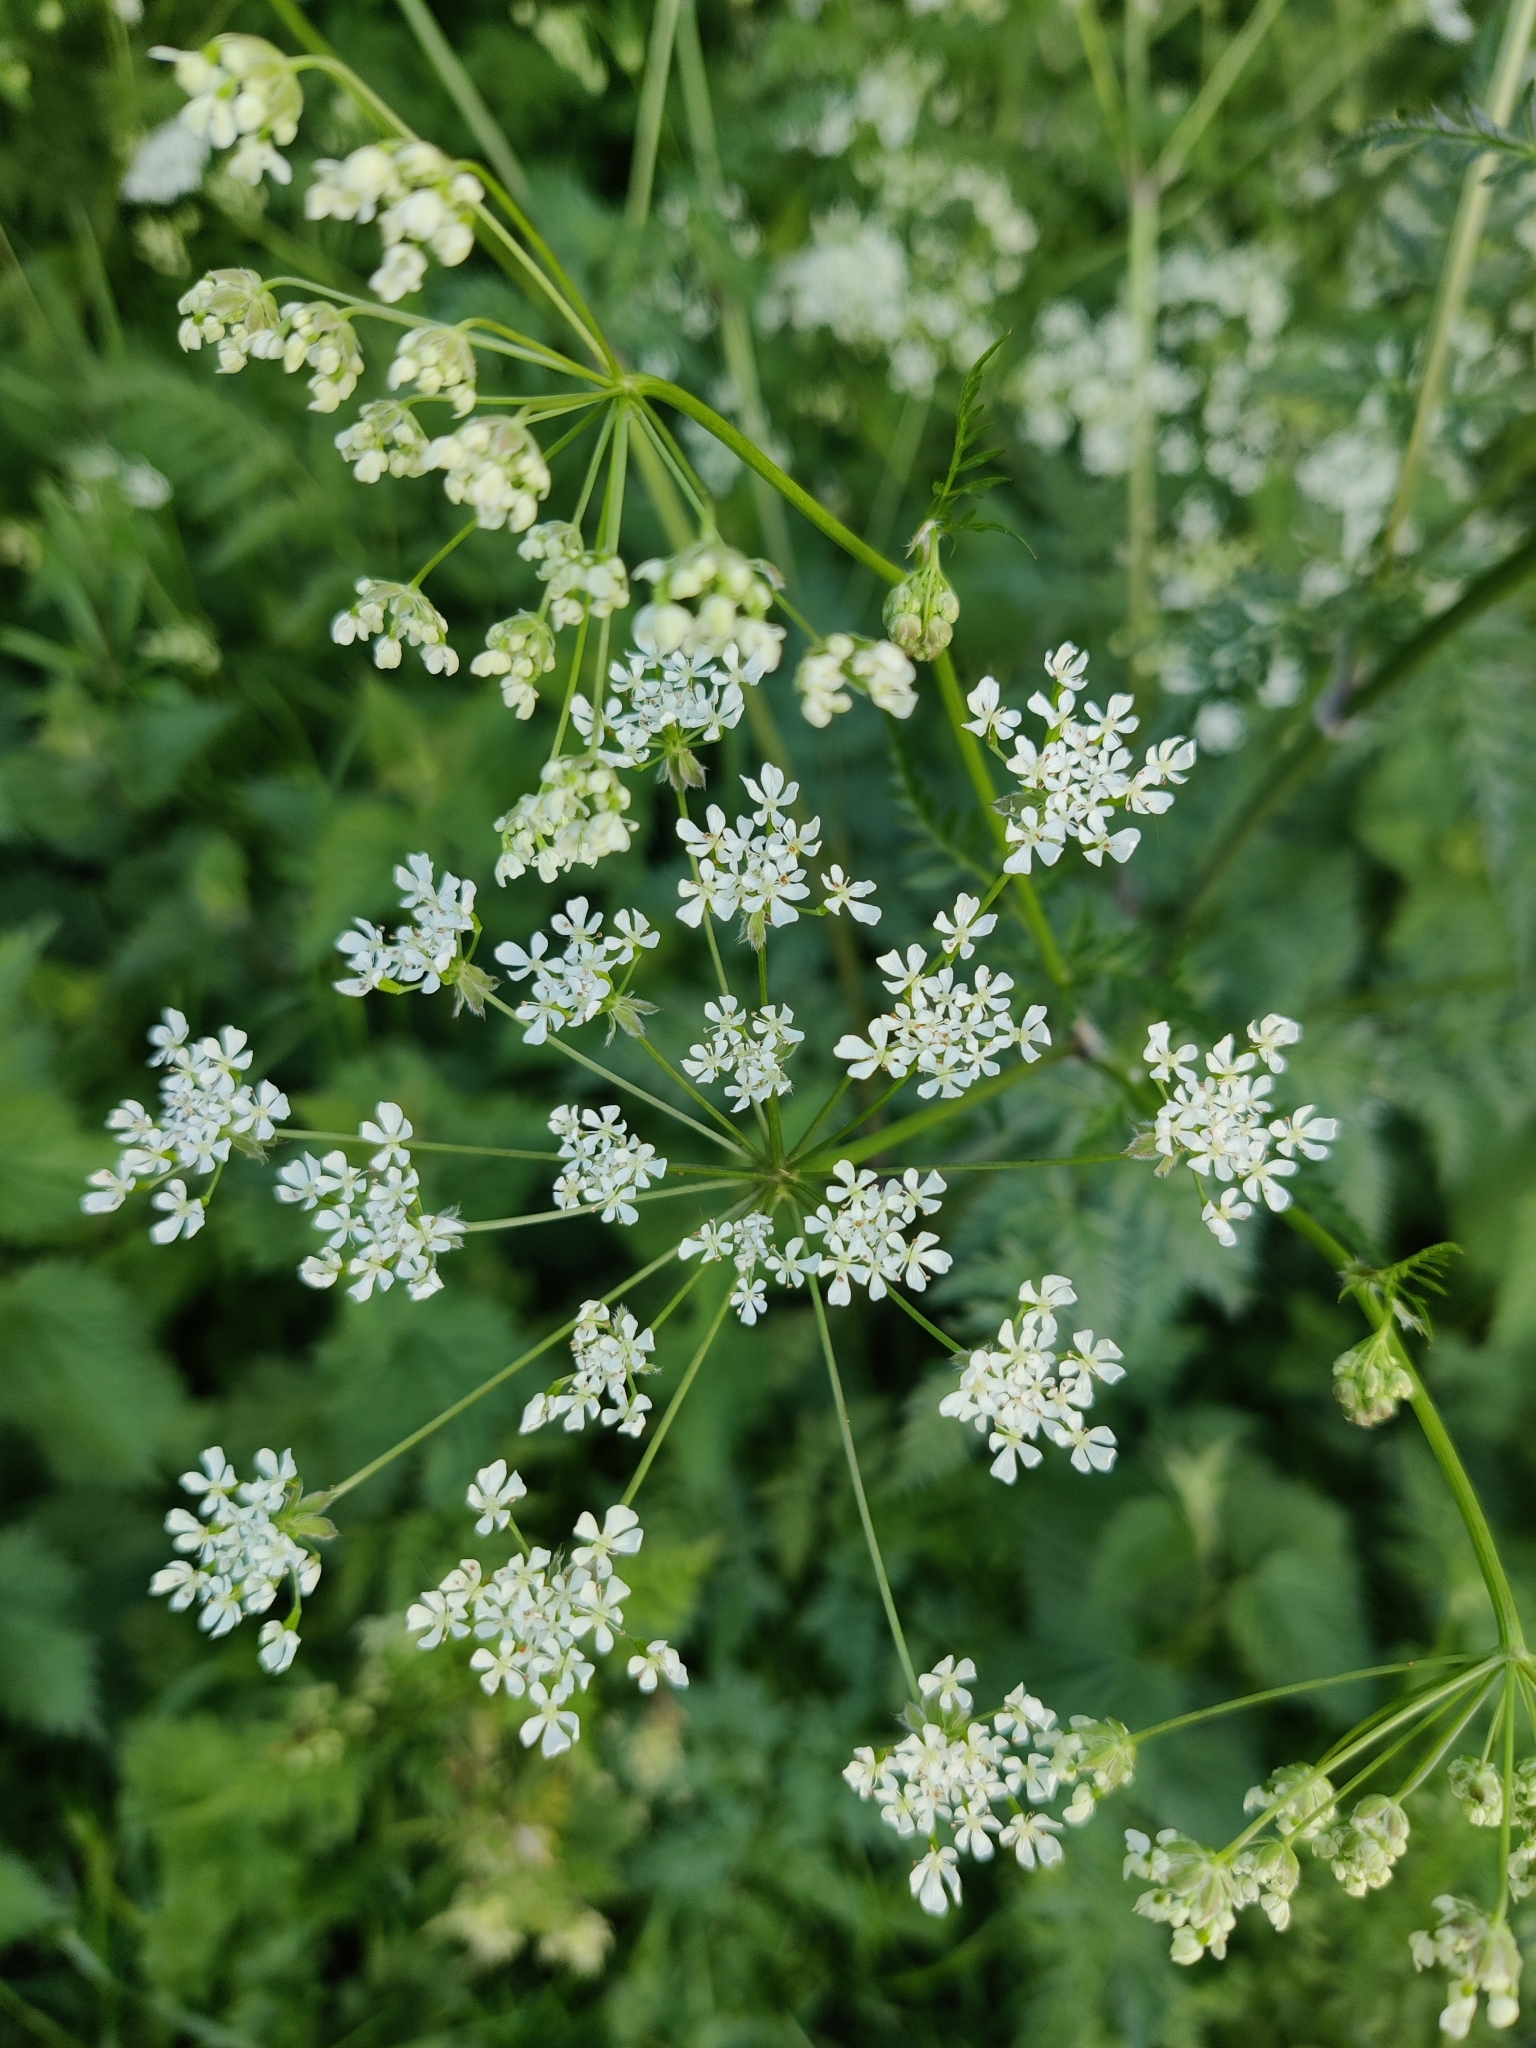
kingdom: Plantae
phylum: Tracheophyta
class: Magnoliopsida
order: Apiales
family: Apiaceae
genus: Anthriscus
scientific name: Anthriscus sylvestris
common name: Cow parsley
